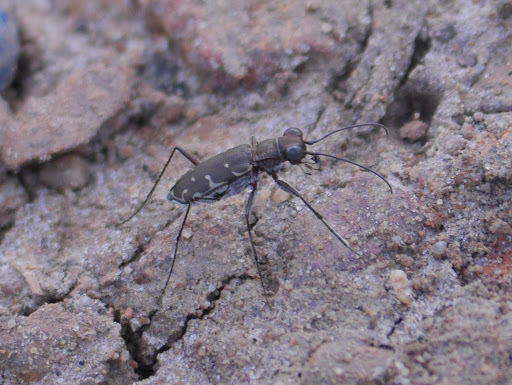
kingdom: Animalia
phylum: Arthropoda
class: Insecta
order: Coleoptera
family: Carabidae
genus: Myriochila
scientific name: Myriochila melancholica
